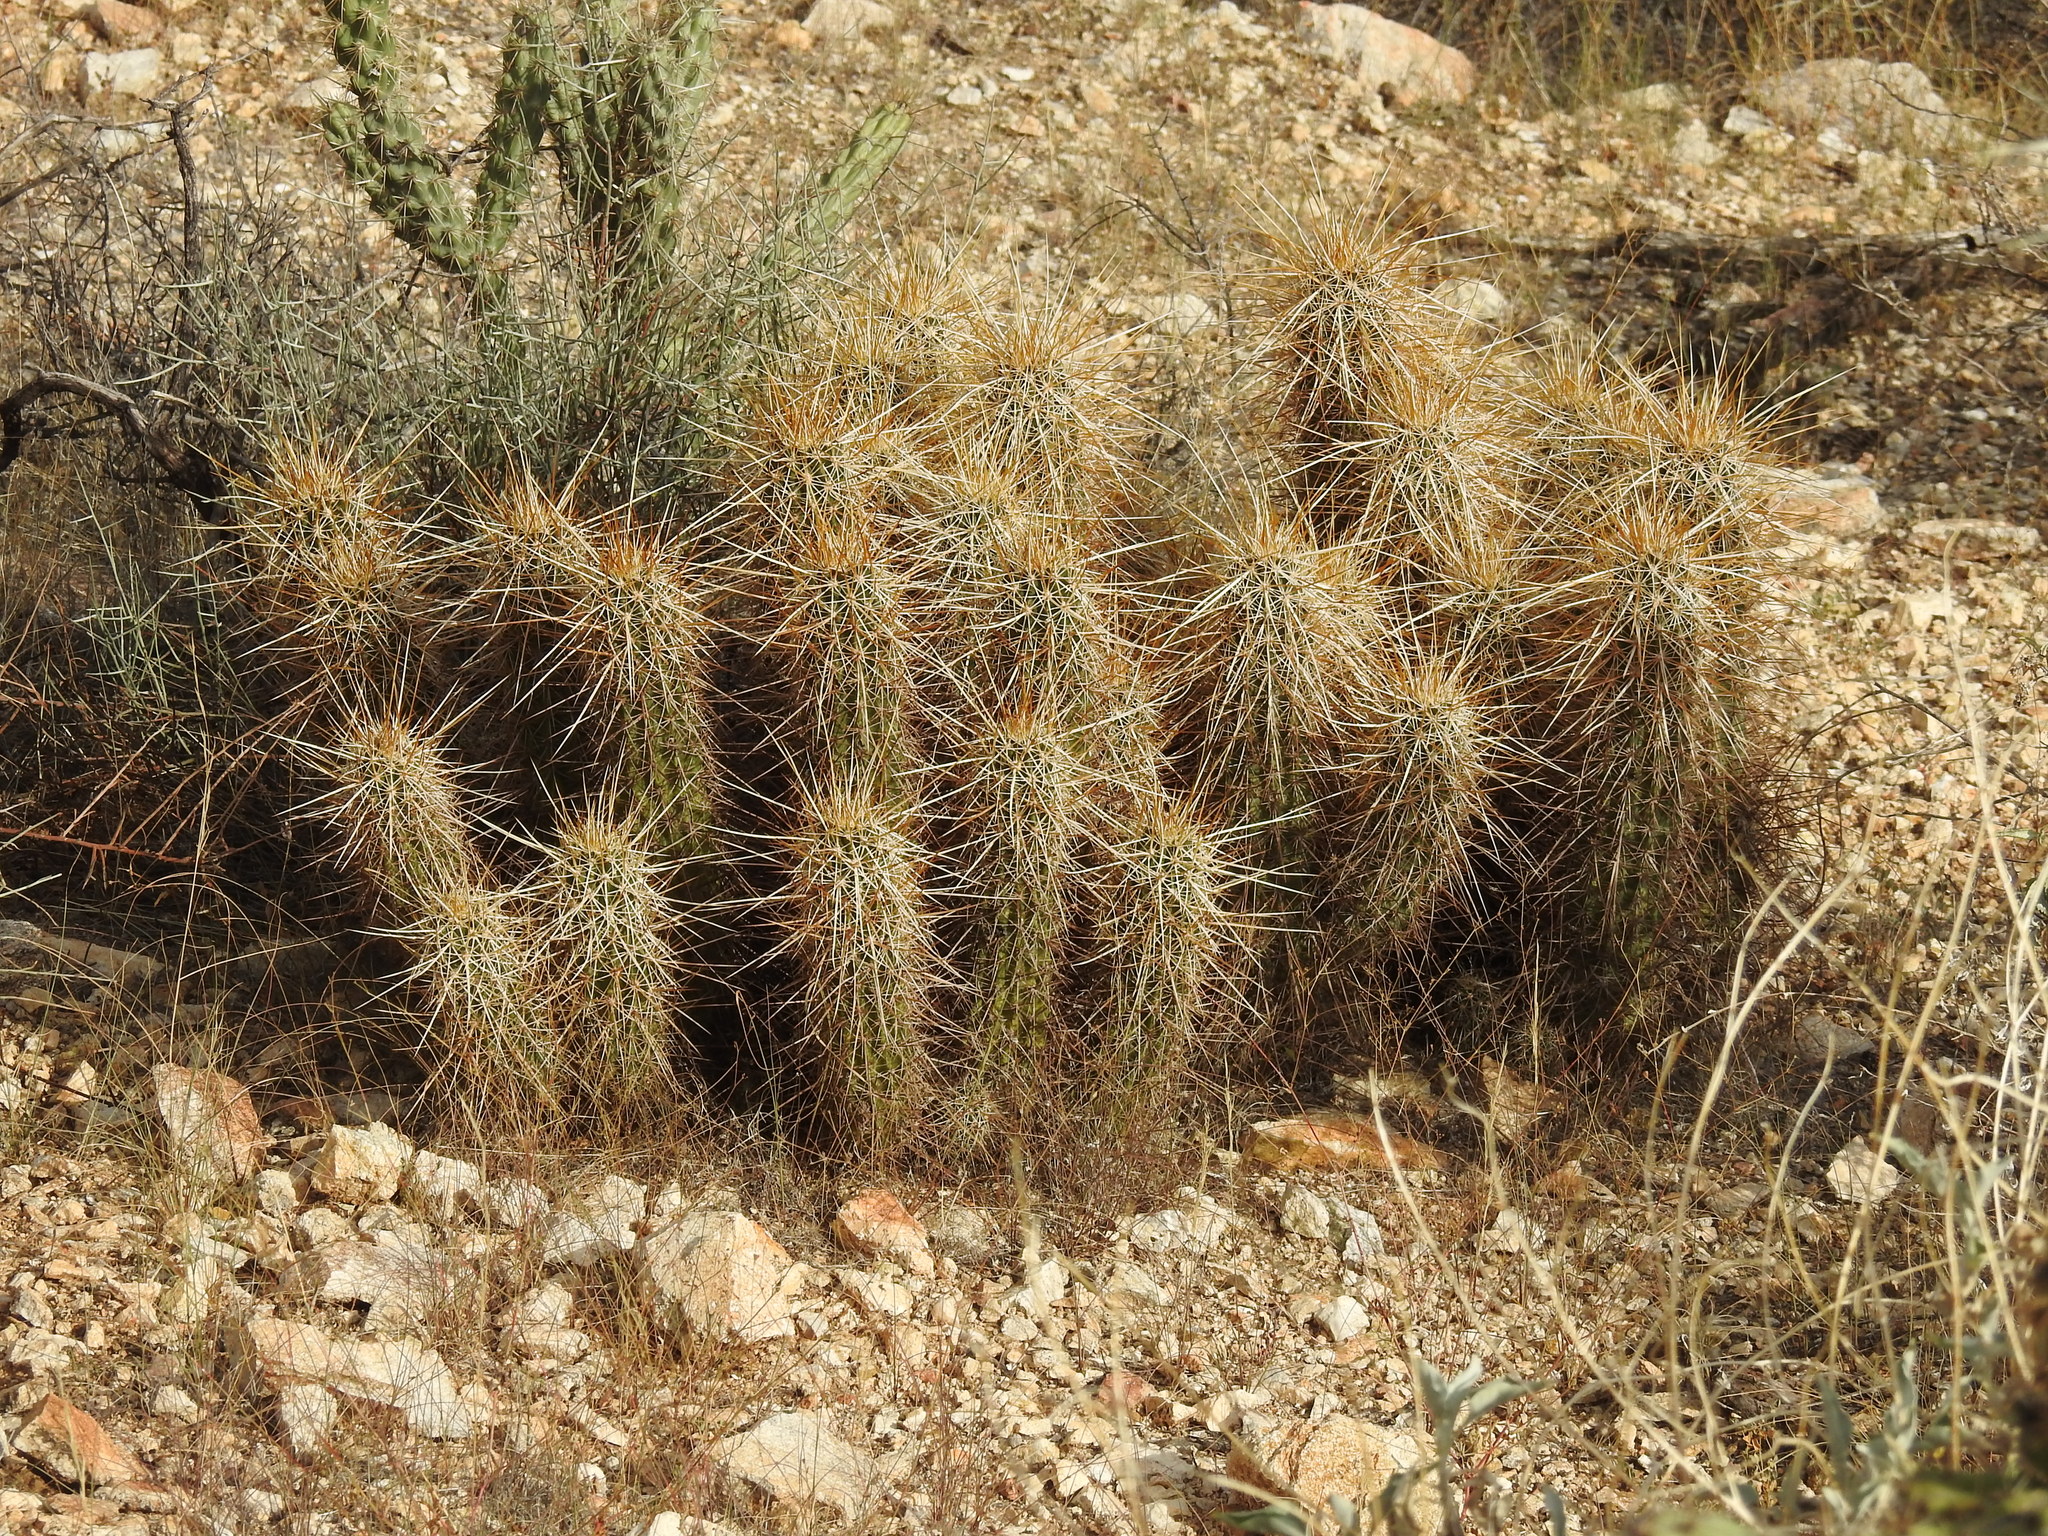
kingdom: Plantae
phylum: Tracheophyta
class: Magnoliopsida
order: Caryophyllales
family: Cactaceae
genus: Echinocereus
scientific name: Echinocereus engelmannii
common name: Engelmann's hedgehog cactus
